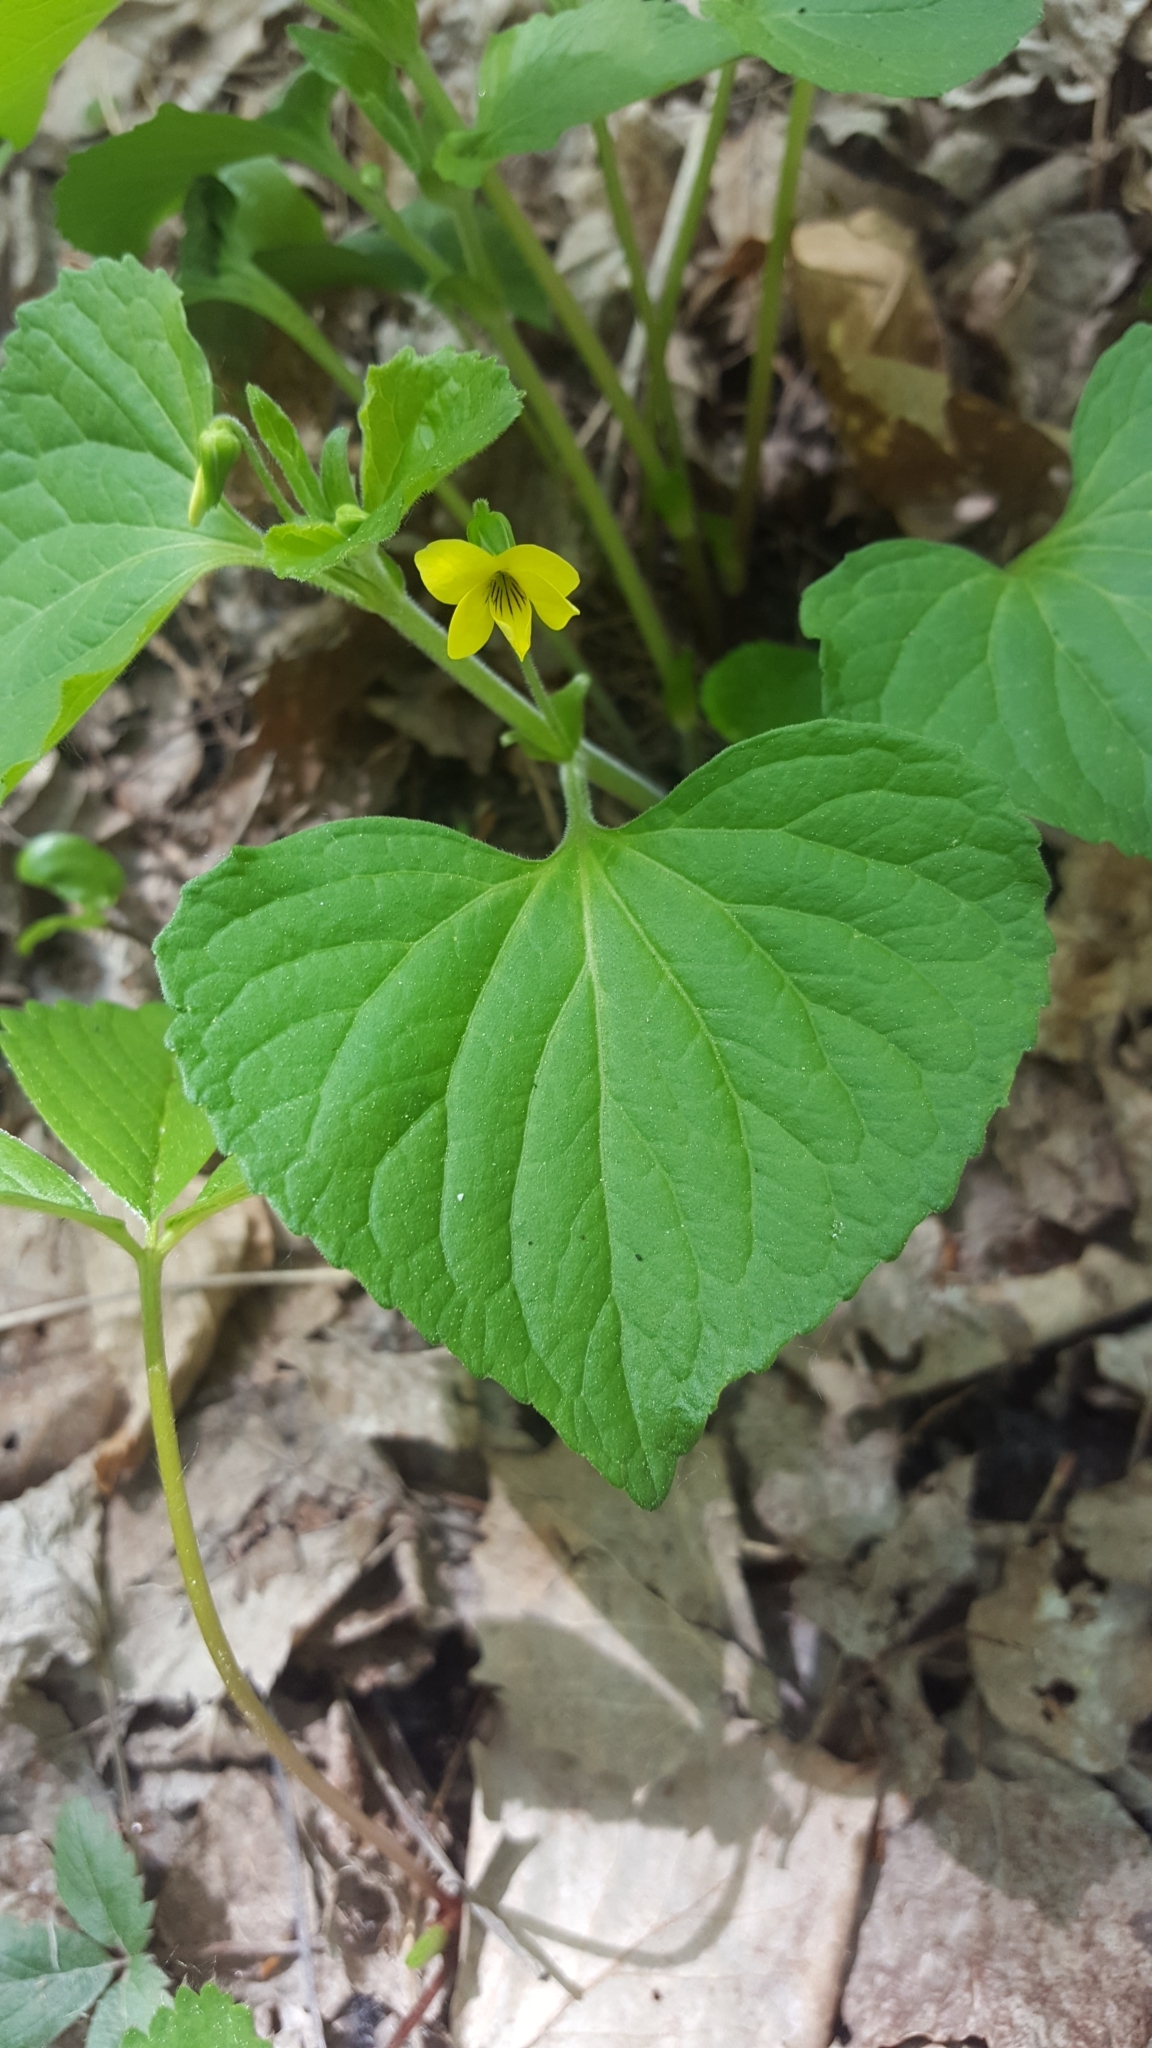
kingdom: Plantae
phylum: Tracheophyta
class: Magnoliopsida
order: Malpighiales
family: Violaceae
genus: Viola
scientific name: Viola eriocarpa
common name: Smooth yellow violet
